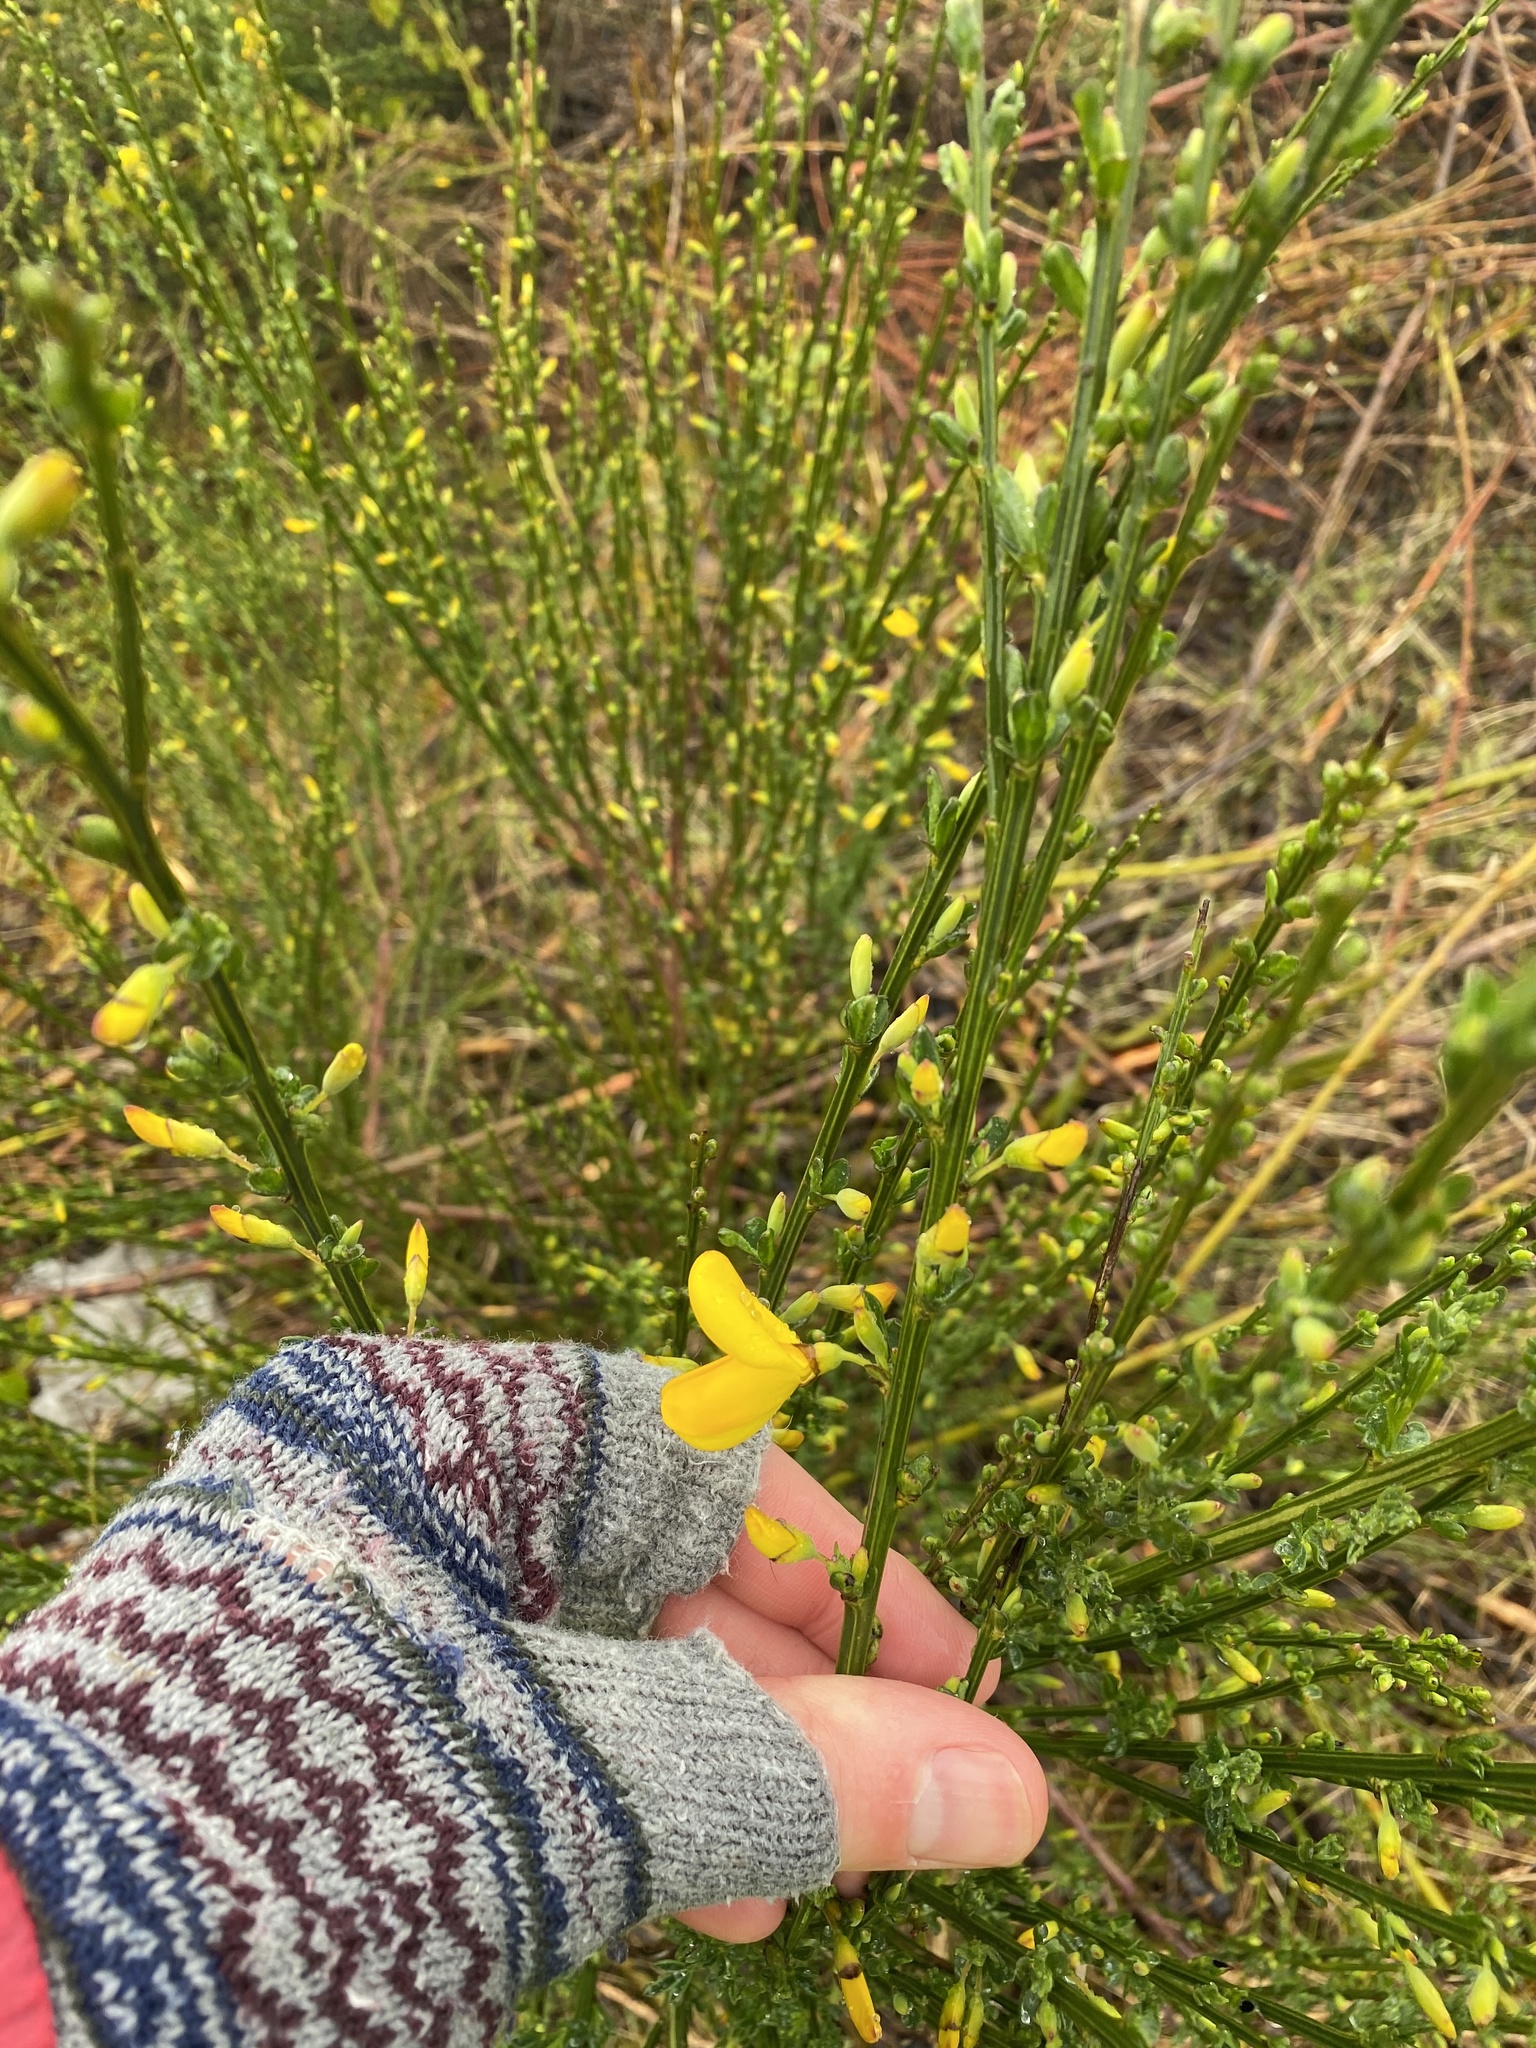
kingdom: Plantae
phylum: Tracheophyta
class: Magnoliopsida
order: Fabales
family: Fabaceae
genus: Cytisus
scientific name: Cytisus scoparius
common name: Scotch broom
